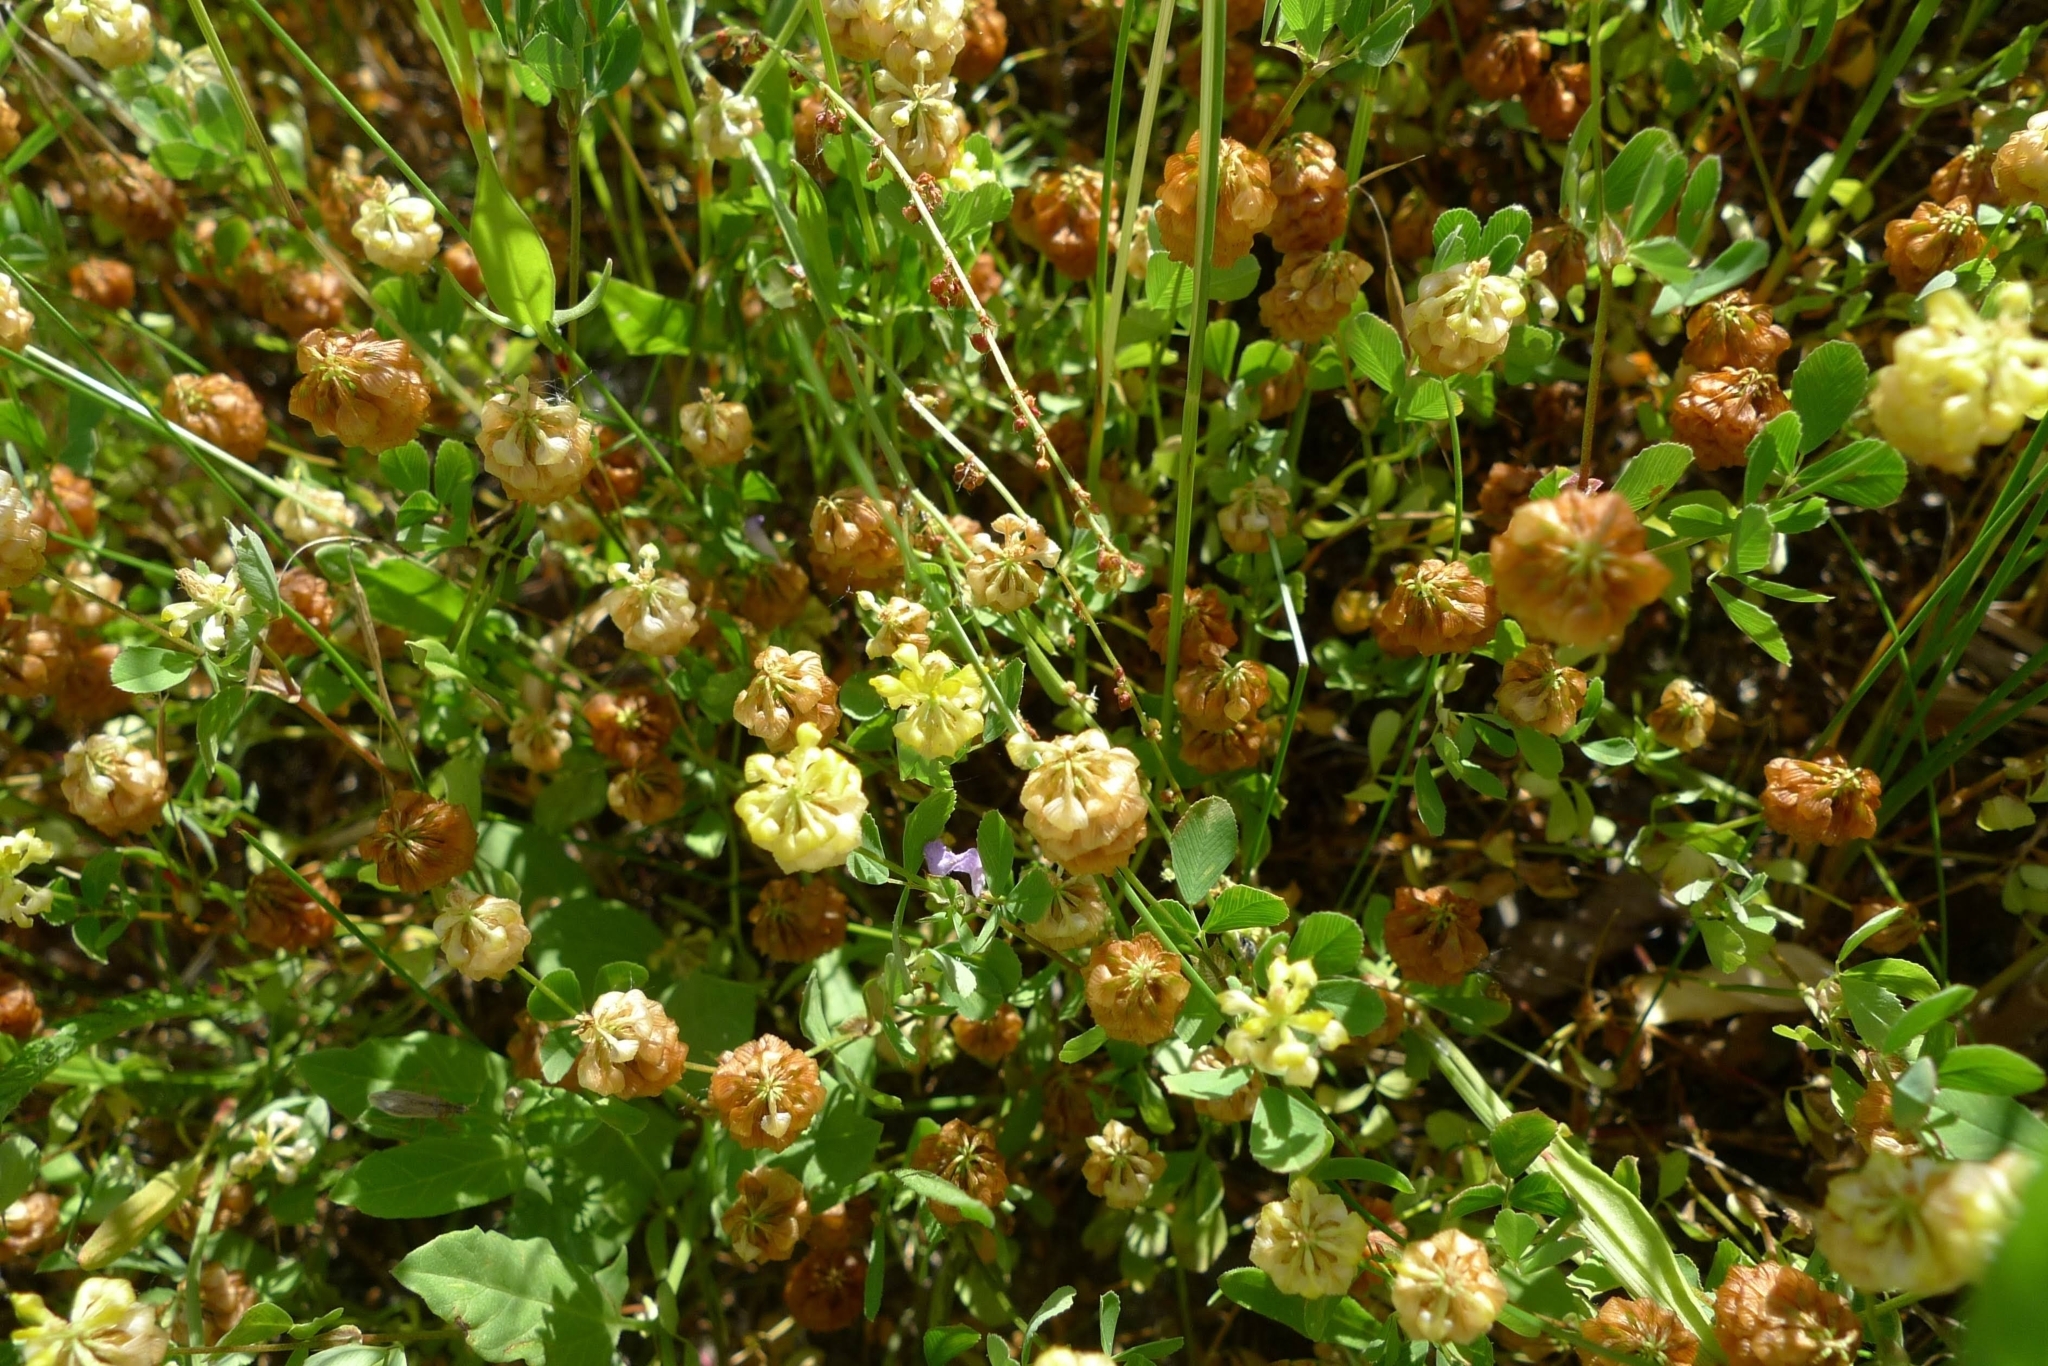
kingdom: Plantae
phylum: Tracheophyta
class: Magnoliopsida
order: Fabales
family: Fabaceae
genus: Trifolium
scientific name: Trifolium campestre
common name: Field clover
